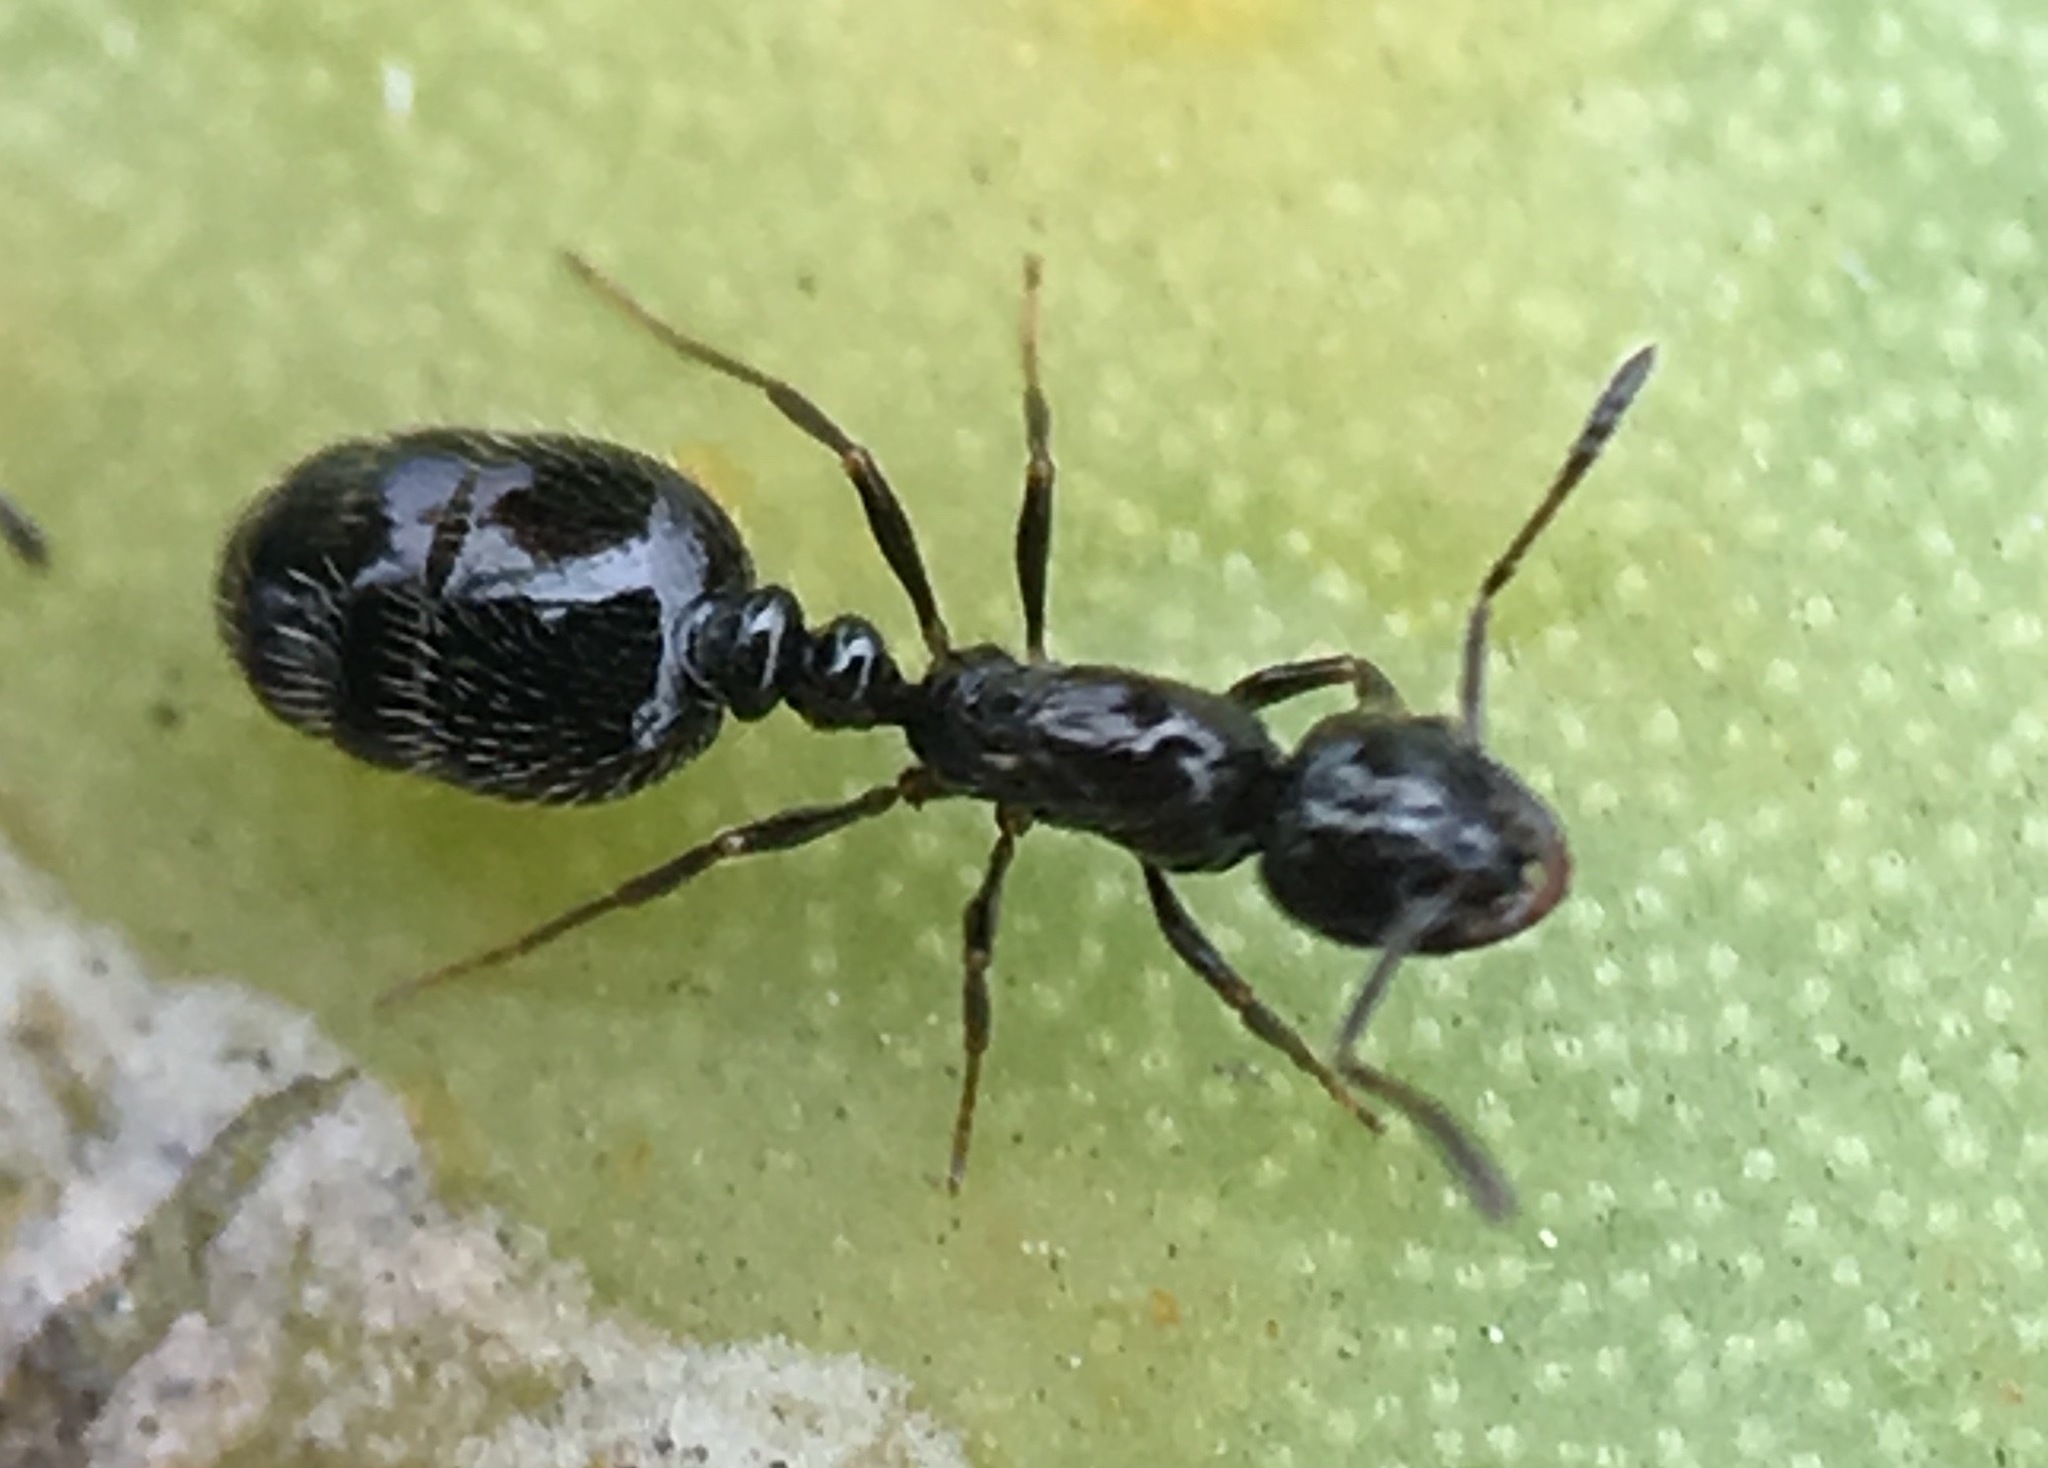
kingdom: Animalia
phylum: Arthropoda
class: Insecta
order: Hymenoptera
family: Formicidae
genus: Monomorium
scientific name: Monomorium ergatogyna
